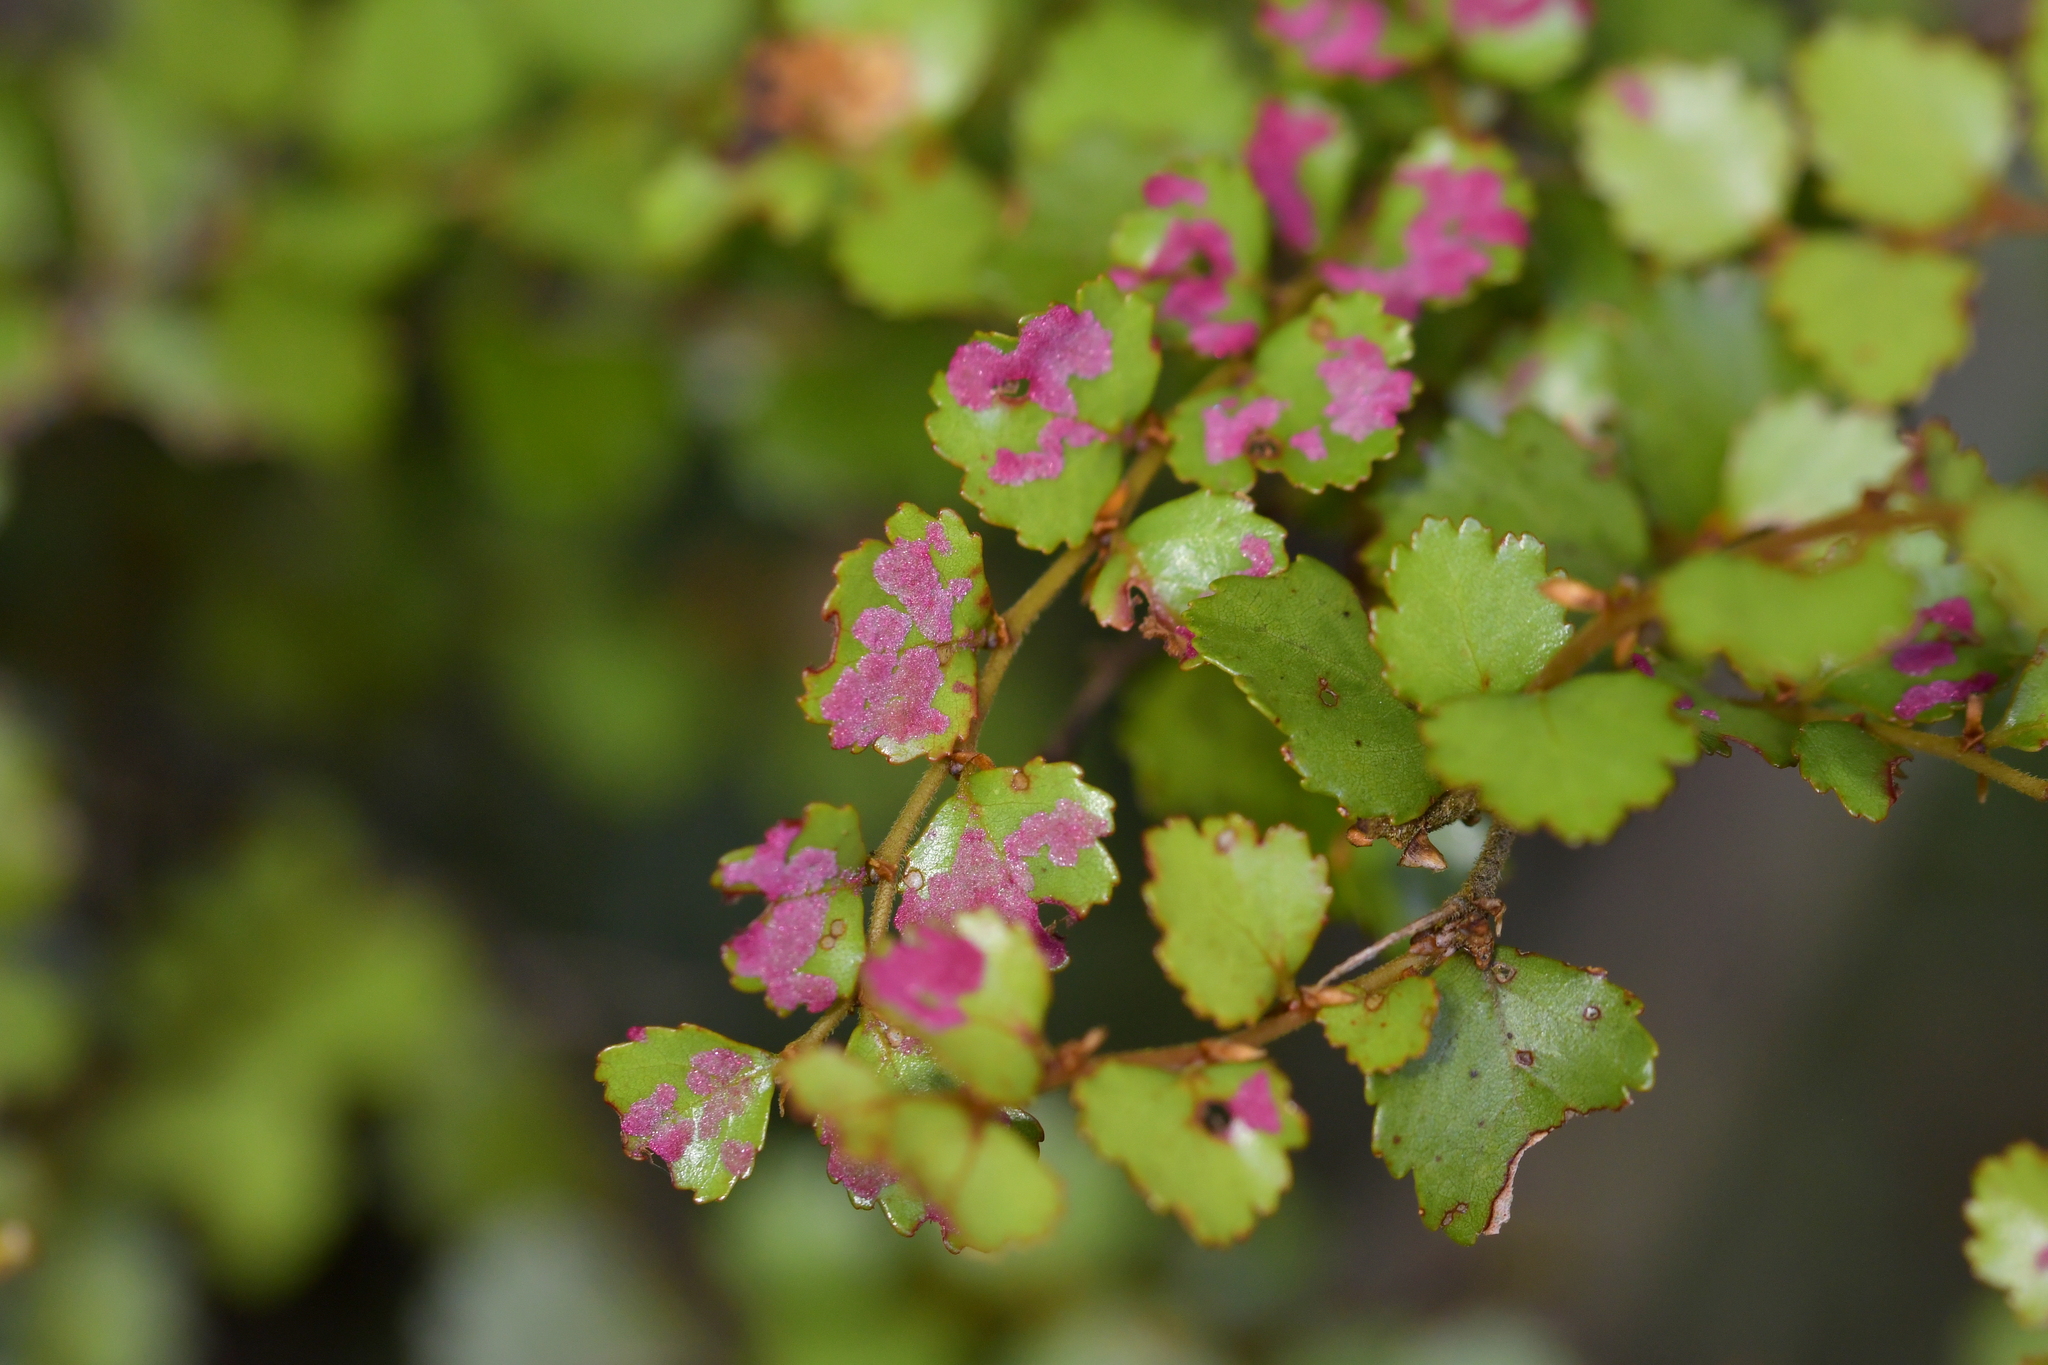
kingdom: Plantae
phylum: Tracheophyta
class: Magnoliopsida
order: Fagales
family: Nothofagaceae
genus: Nothofagus
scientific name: Nothofagus menziesii
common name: Silver beech
